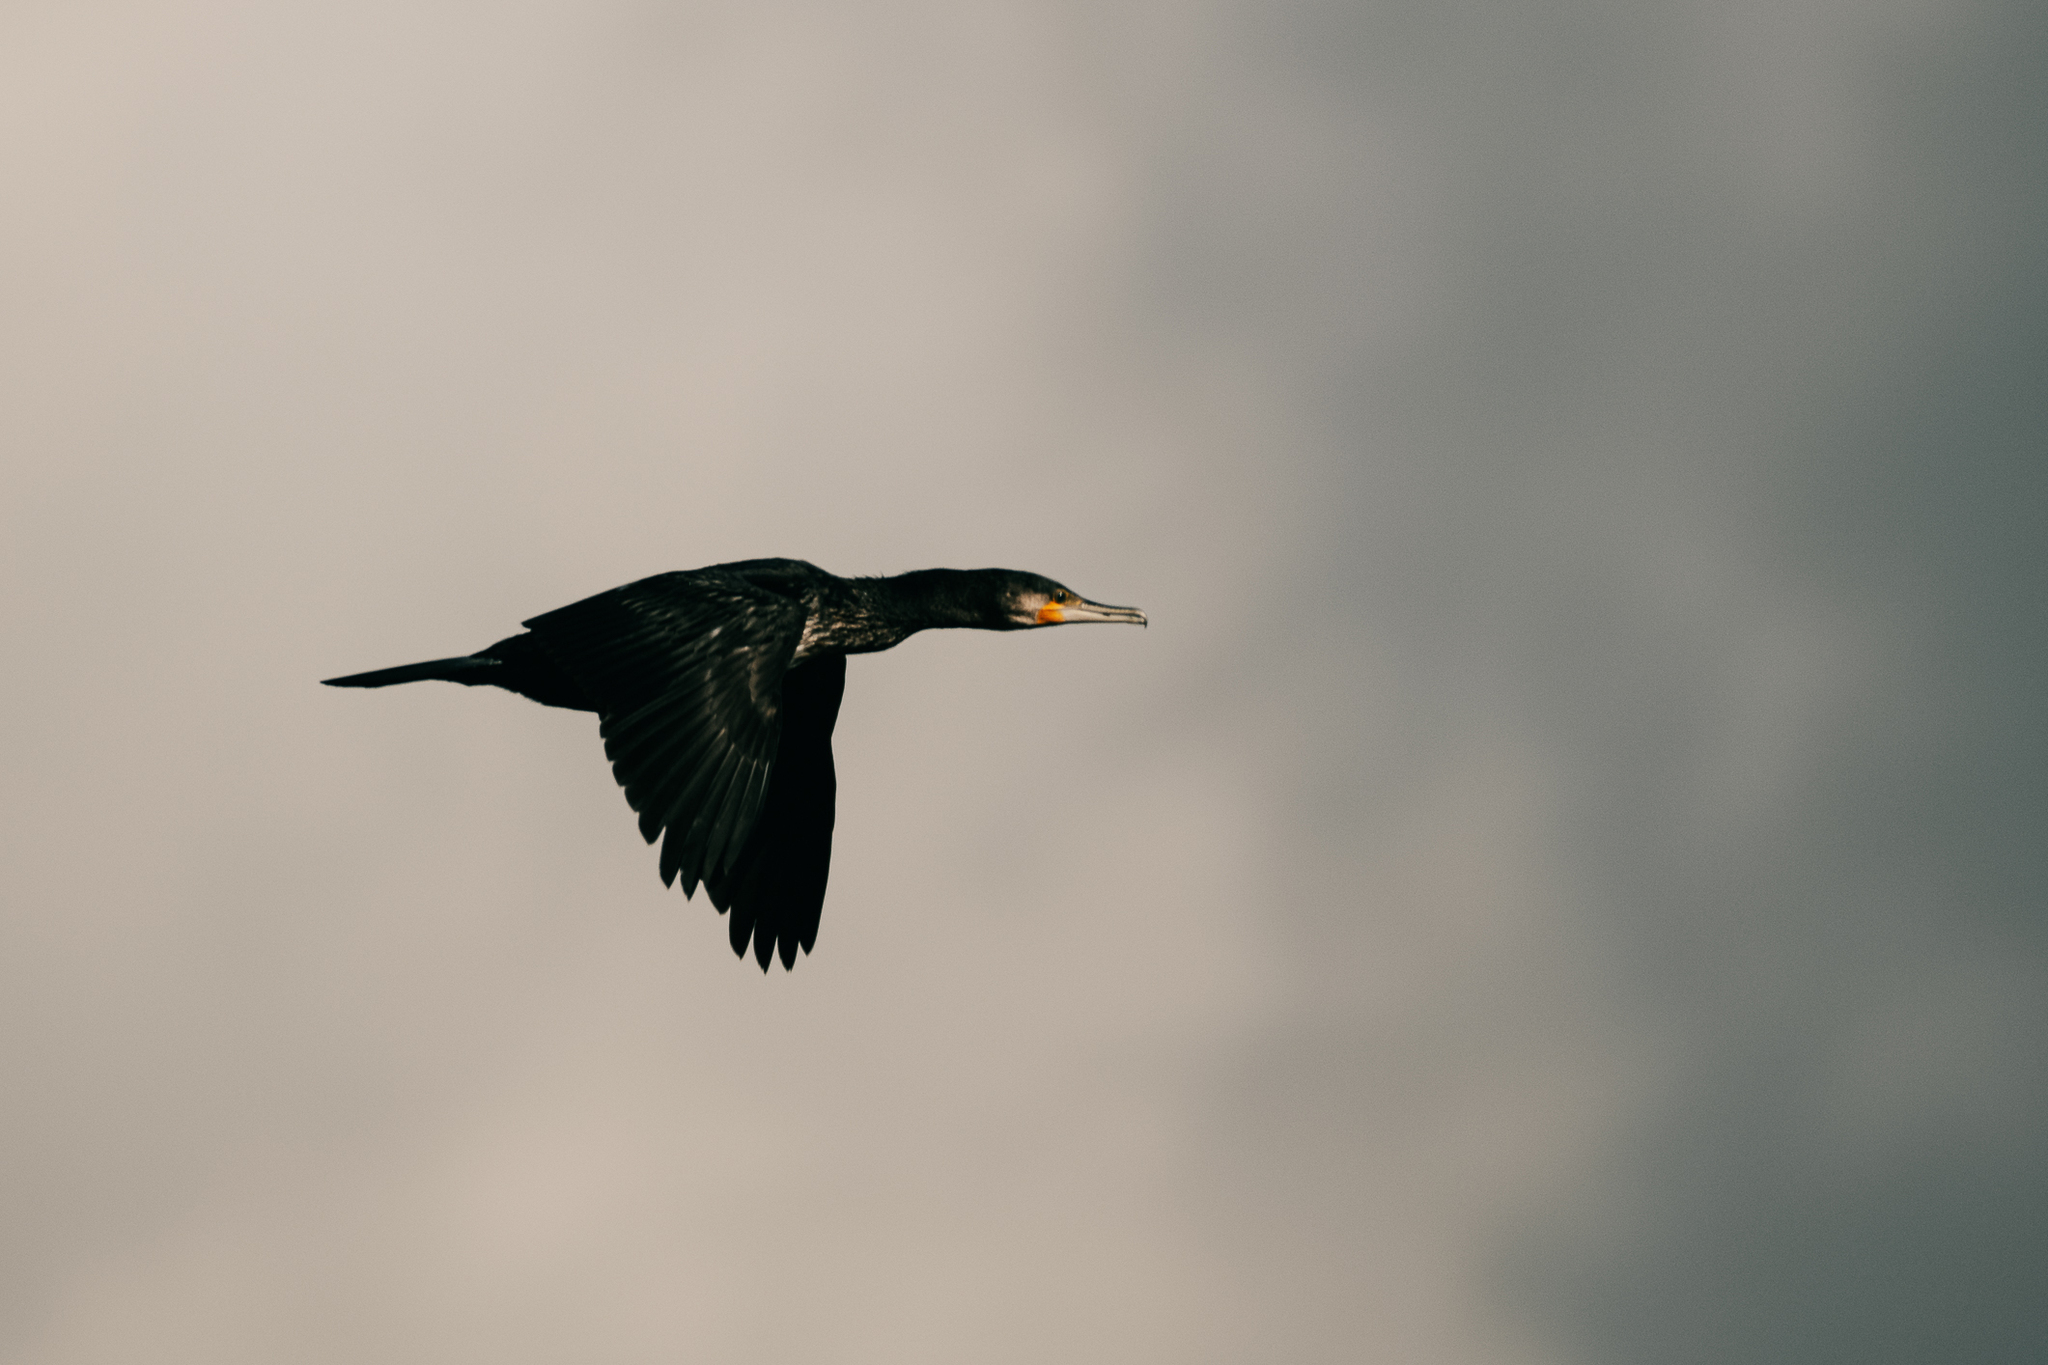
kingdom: Animalia
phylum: Chordata
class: Aves
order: Suliformes
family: Phalacrocoracidae
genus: Phalacrocorax
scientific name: Phalacrocorax carbo
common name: Great cormorant
